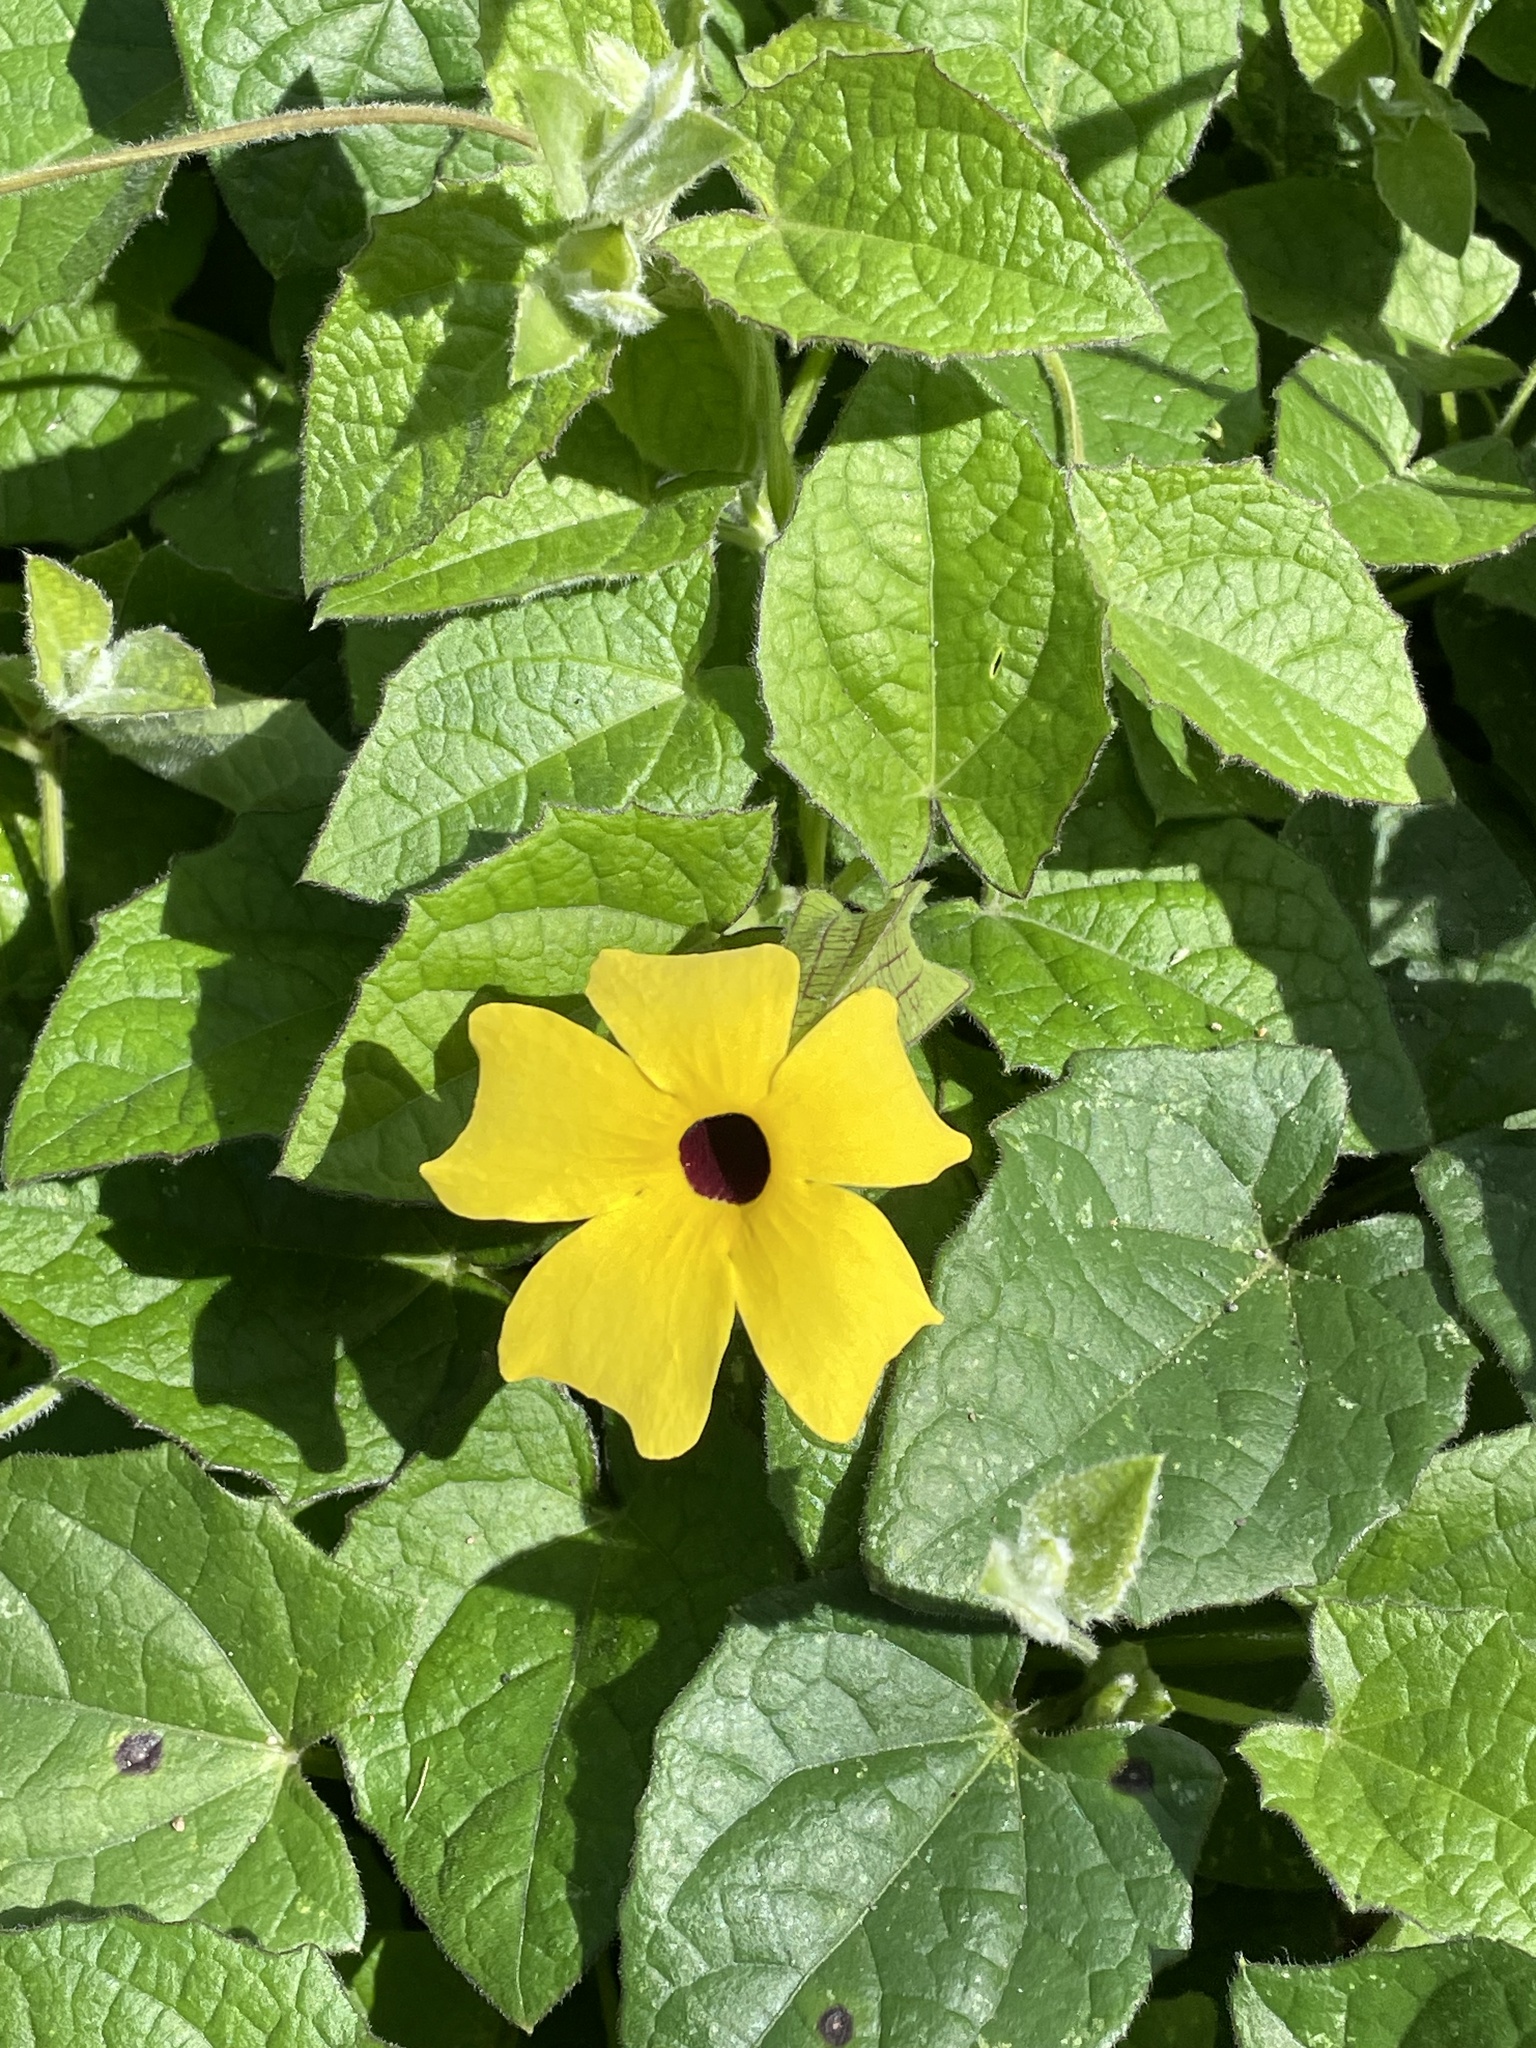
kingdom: Plantae
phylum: Tracheophyta
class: Magnoliopsida
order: Lamiales
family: Acanthaceae
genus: Thunbergia
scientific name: Thunbergia alata
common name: Blackeyed susan vine
